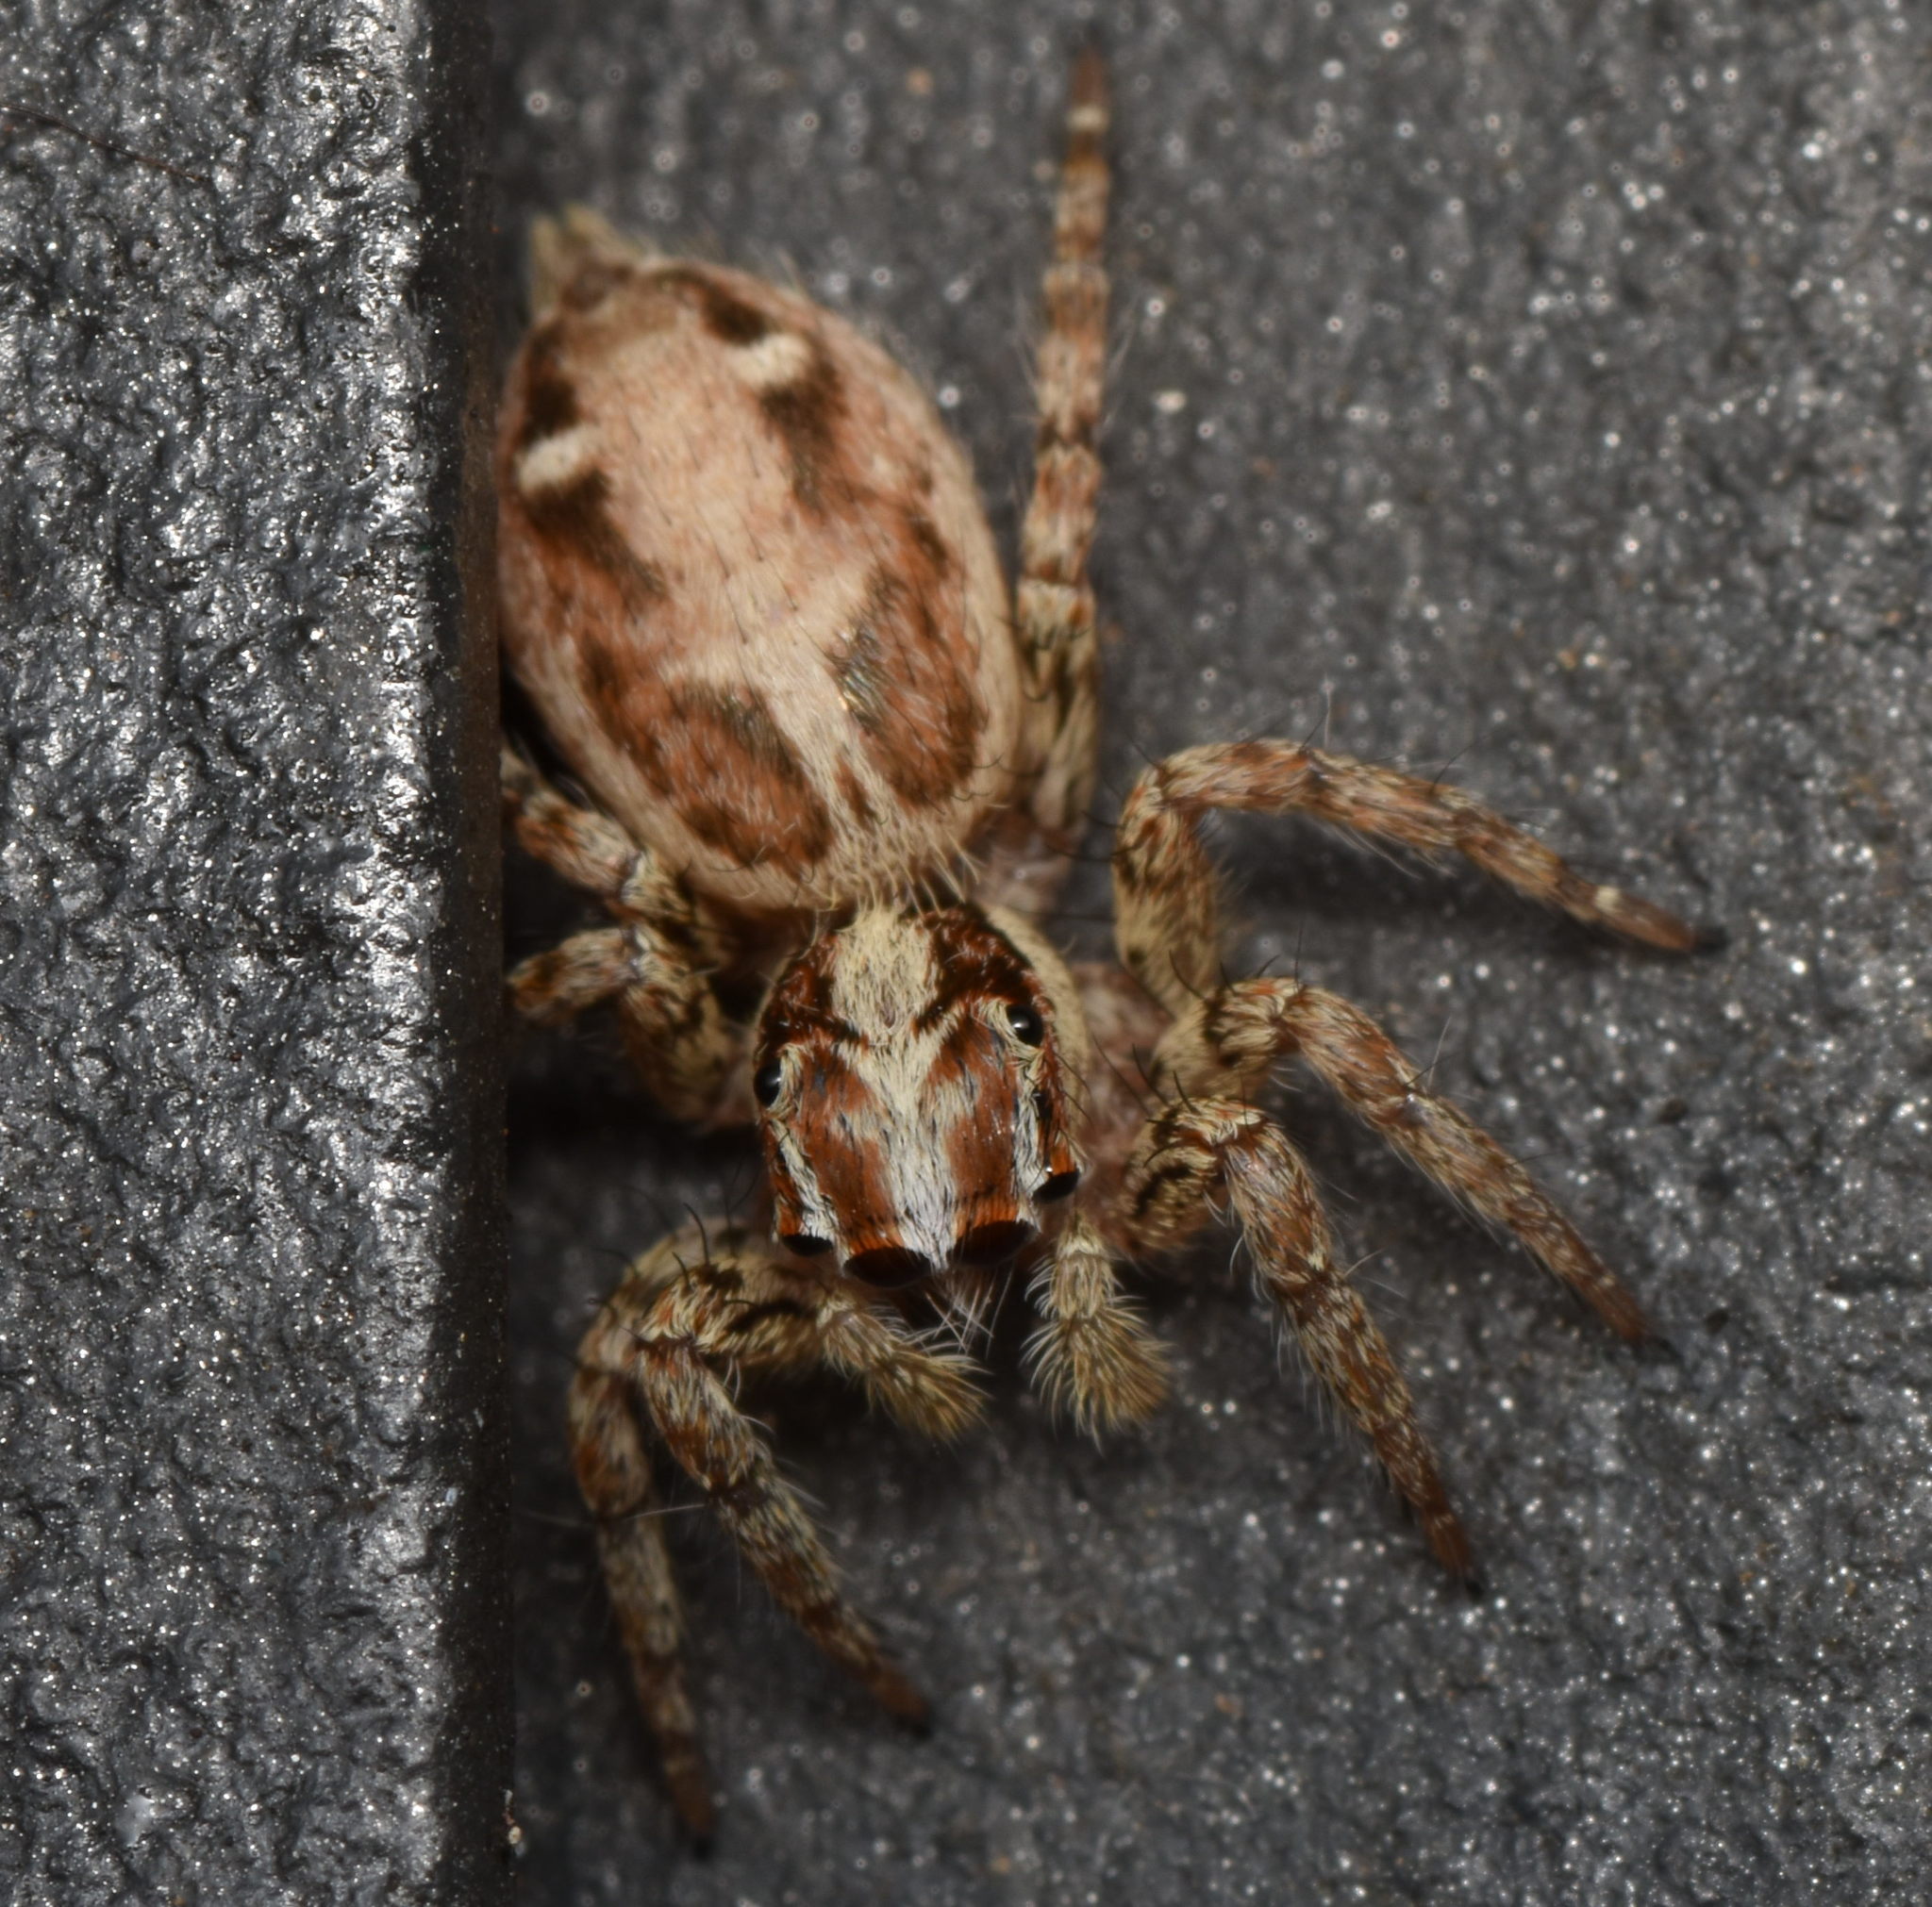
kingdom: Animalia
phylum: Arthropoda
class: Arachnida
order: Araneae
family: Salticidae
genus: Plexippus
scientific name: Plexippus paykulli
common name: Pantropical jumper
